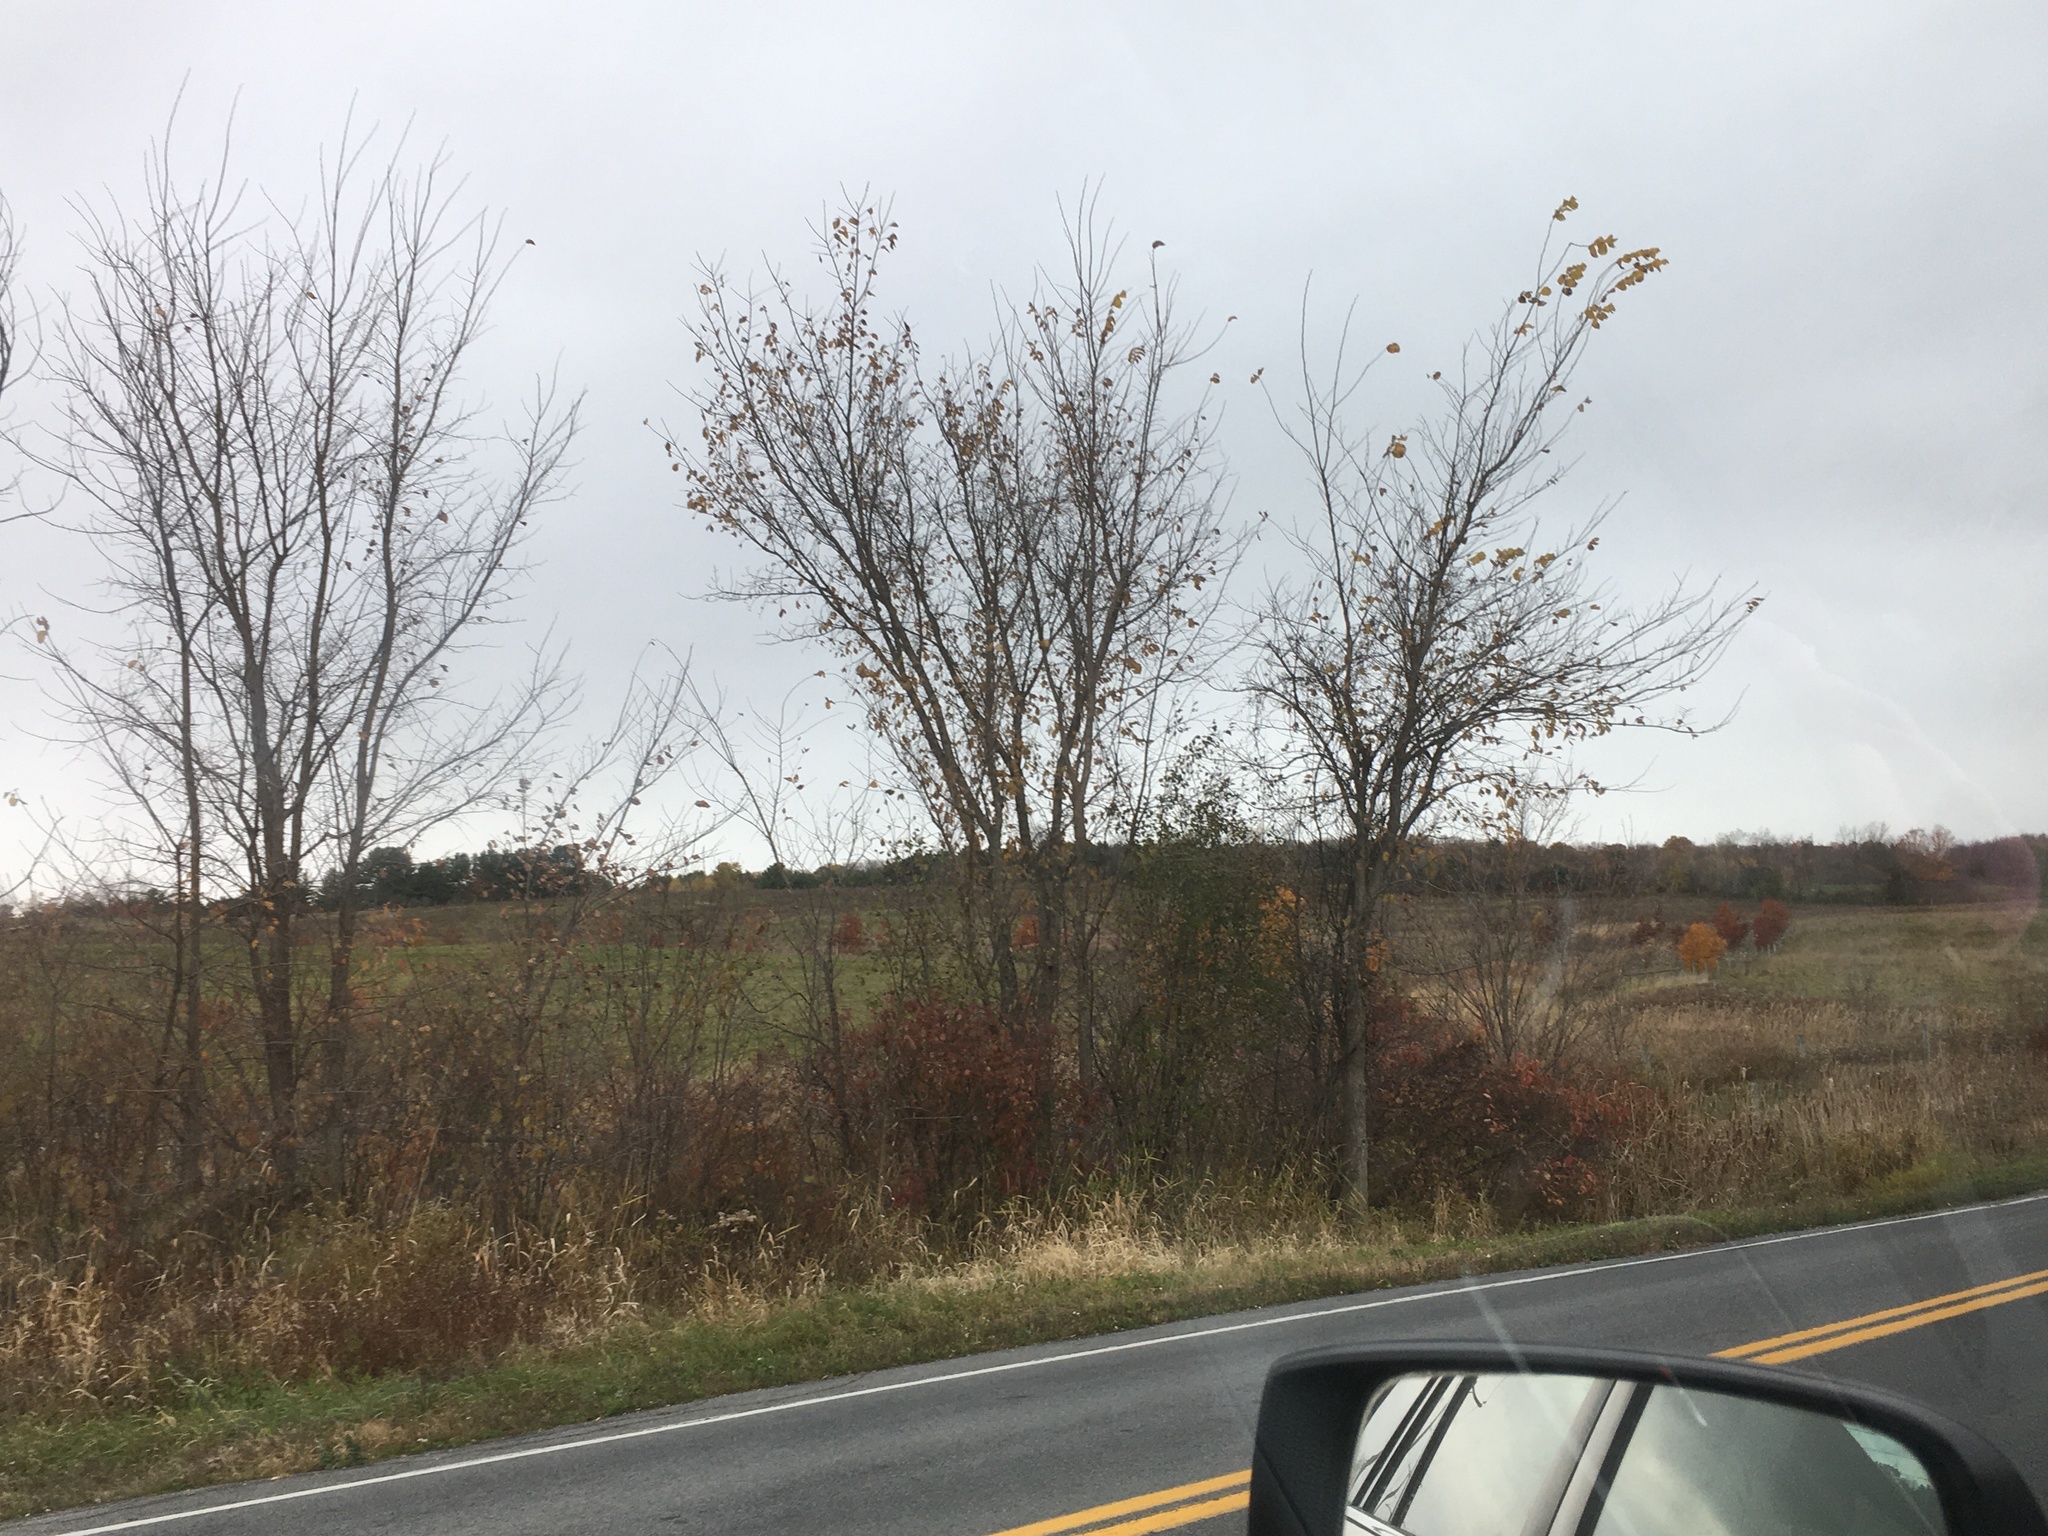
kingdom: Plantae
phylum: Tracheophyta
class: Magnoliopsida
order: Rosales
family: Ulmaceae
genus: Ulmus
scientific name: Ulmus americana
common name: American elm
